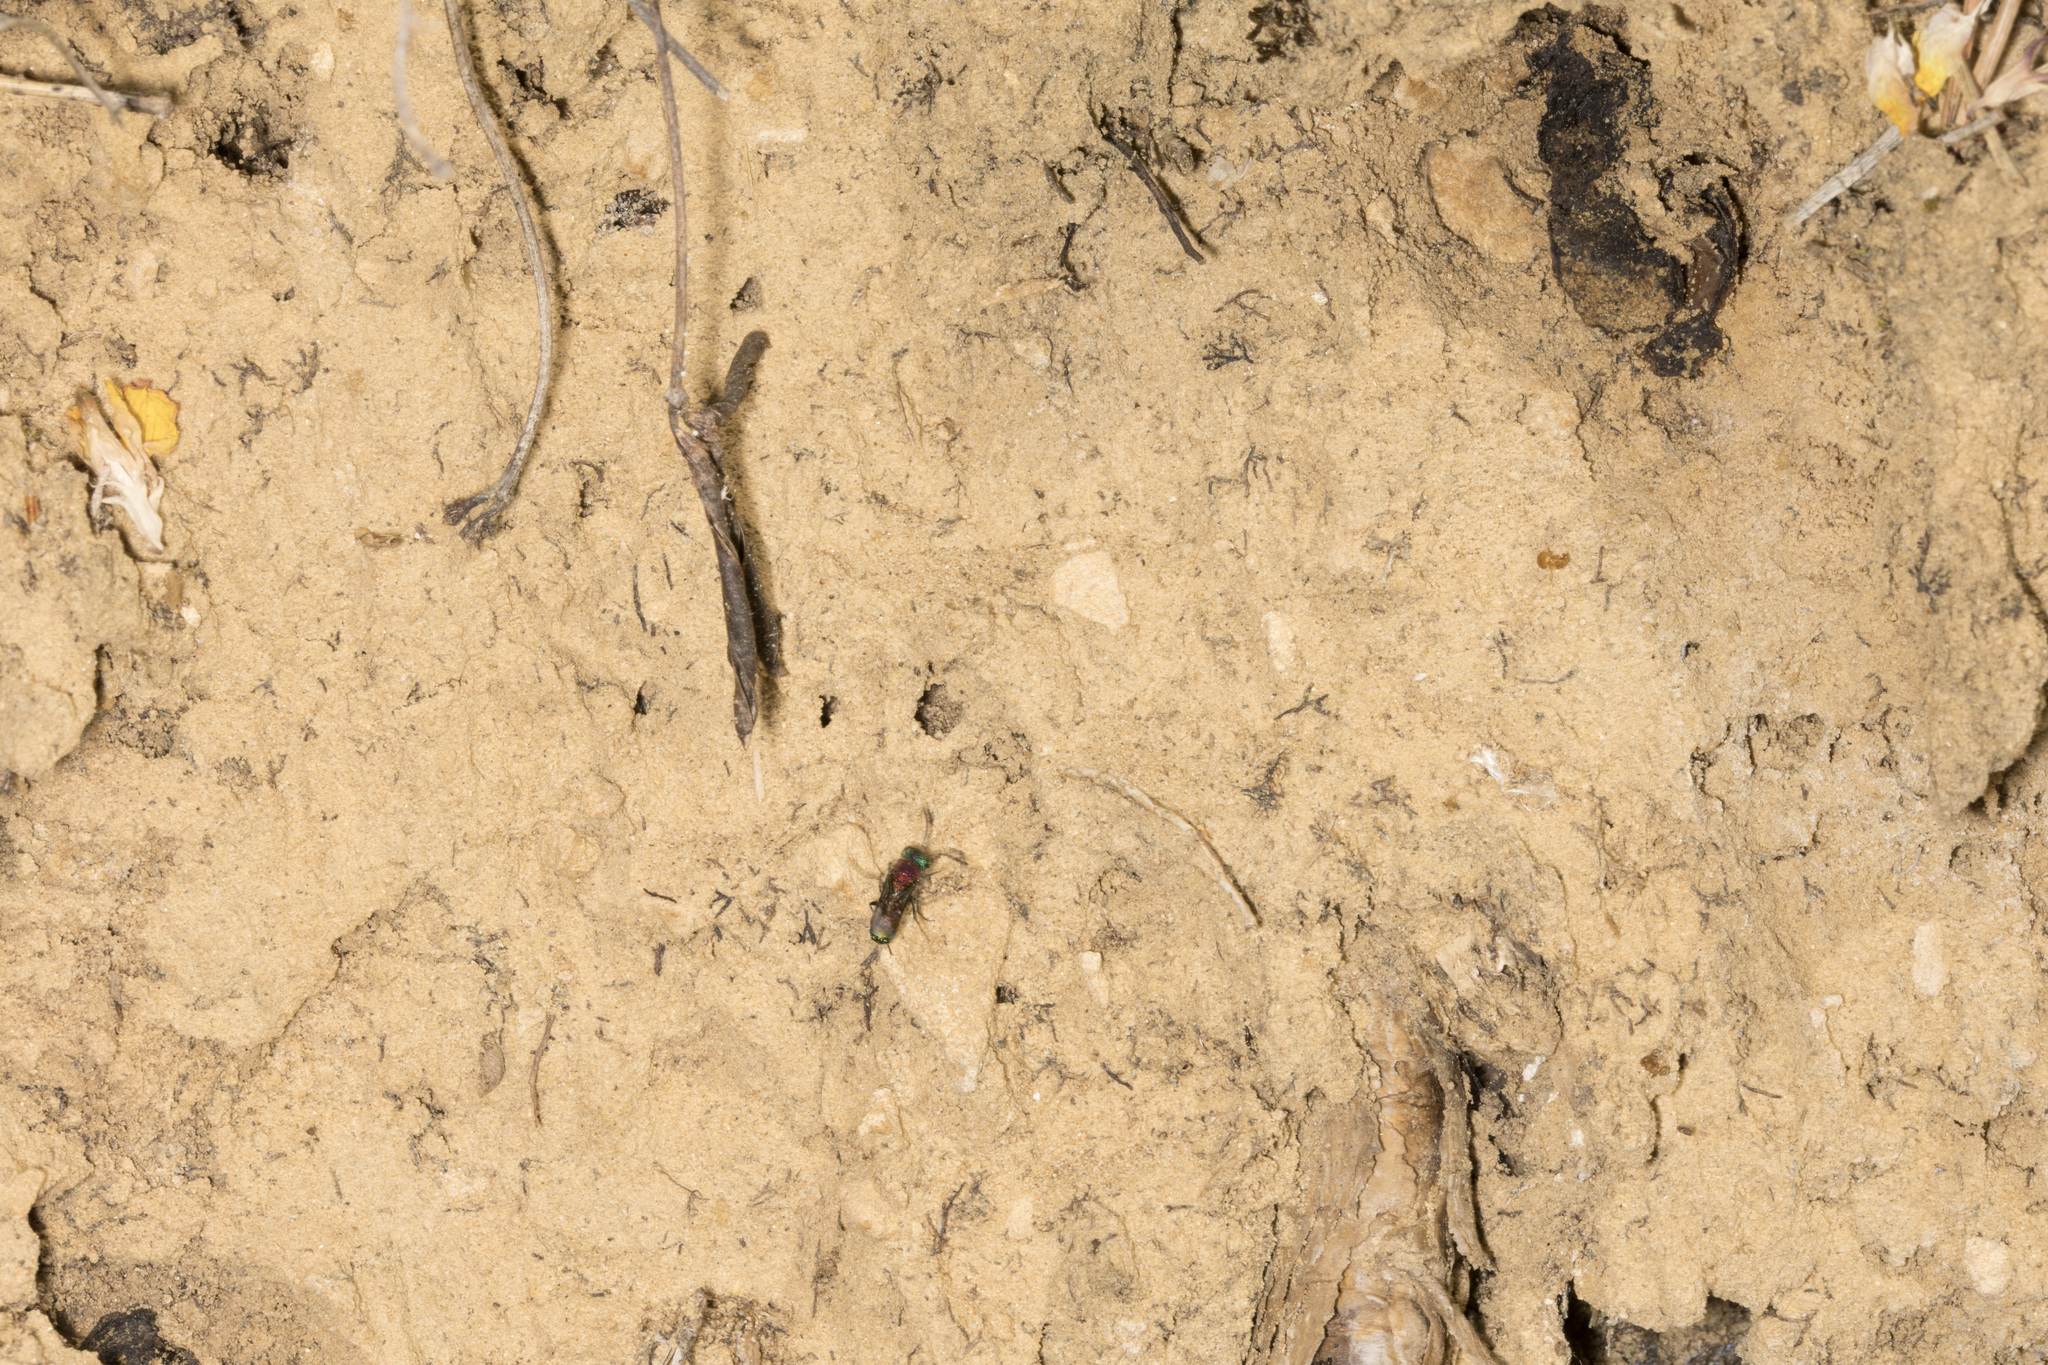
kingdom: Animalia
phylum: Arthropoda
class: Insecta
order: Hymenoptera
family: Chrysididae
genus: Chrysis
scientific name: Chrysis viridula
